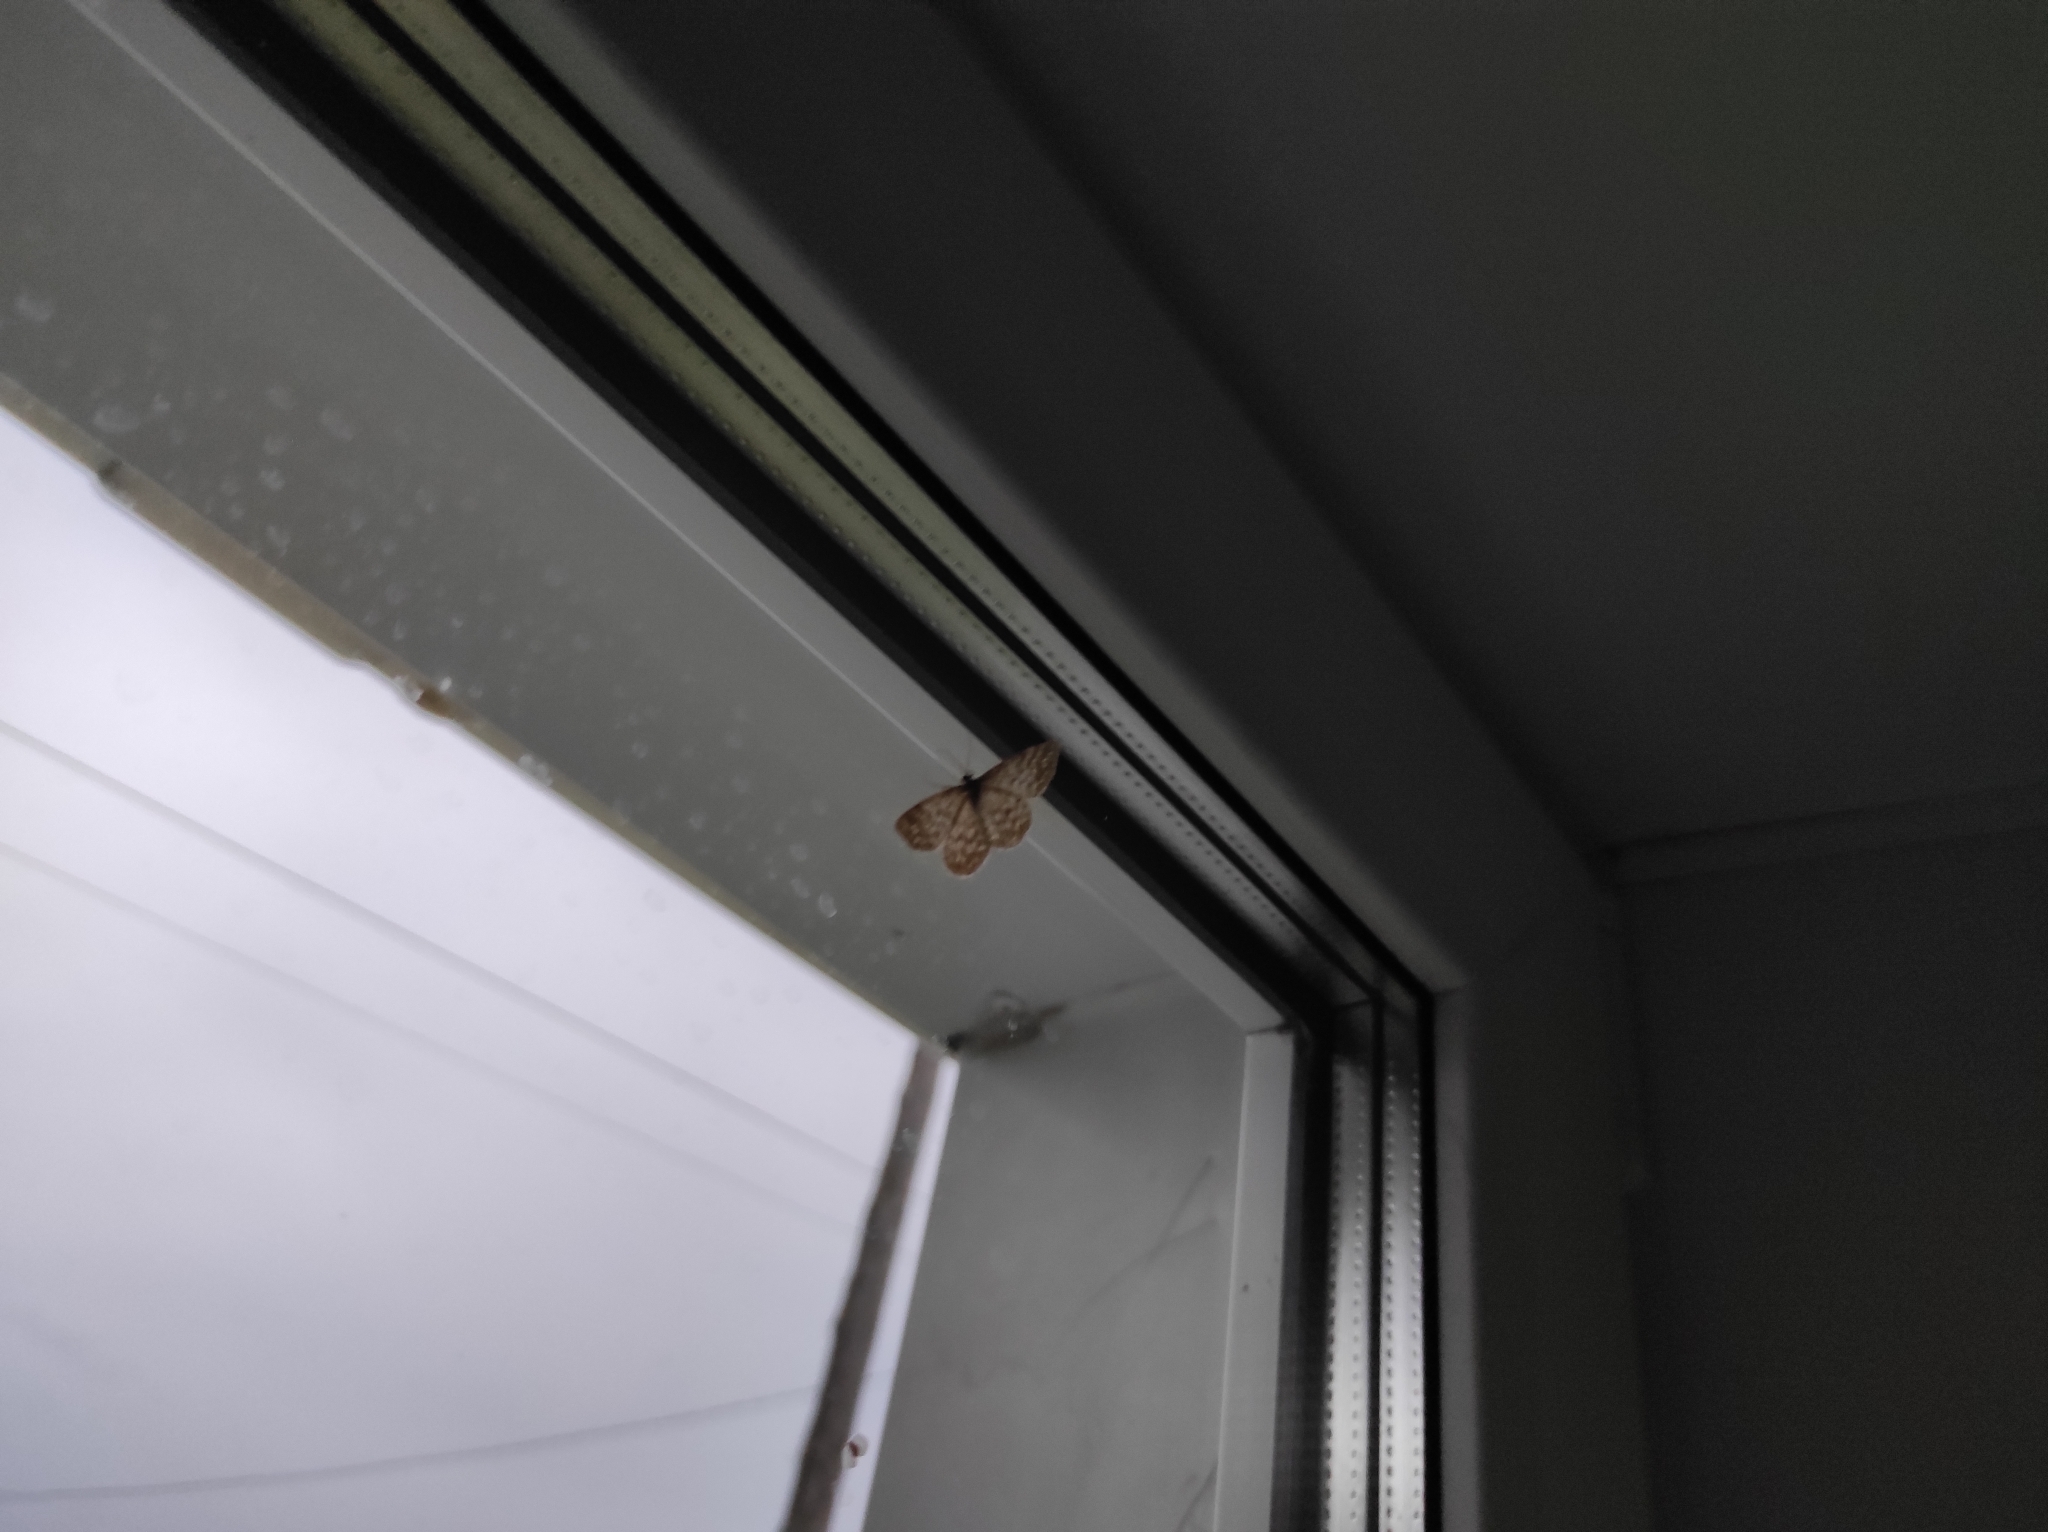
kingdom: Animalia
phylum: Arthropoda
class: Insecta
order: Lepidoptera
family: Geometridae
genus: Scopula
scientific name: Scopula immorata
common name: Lewes wave
